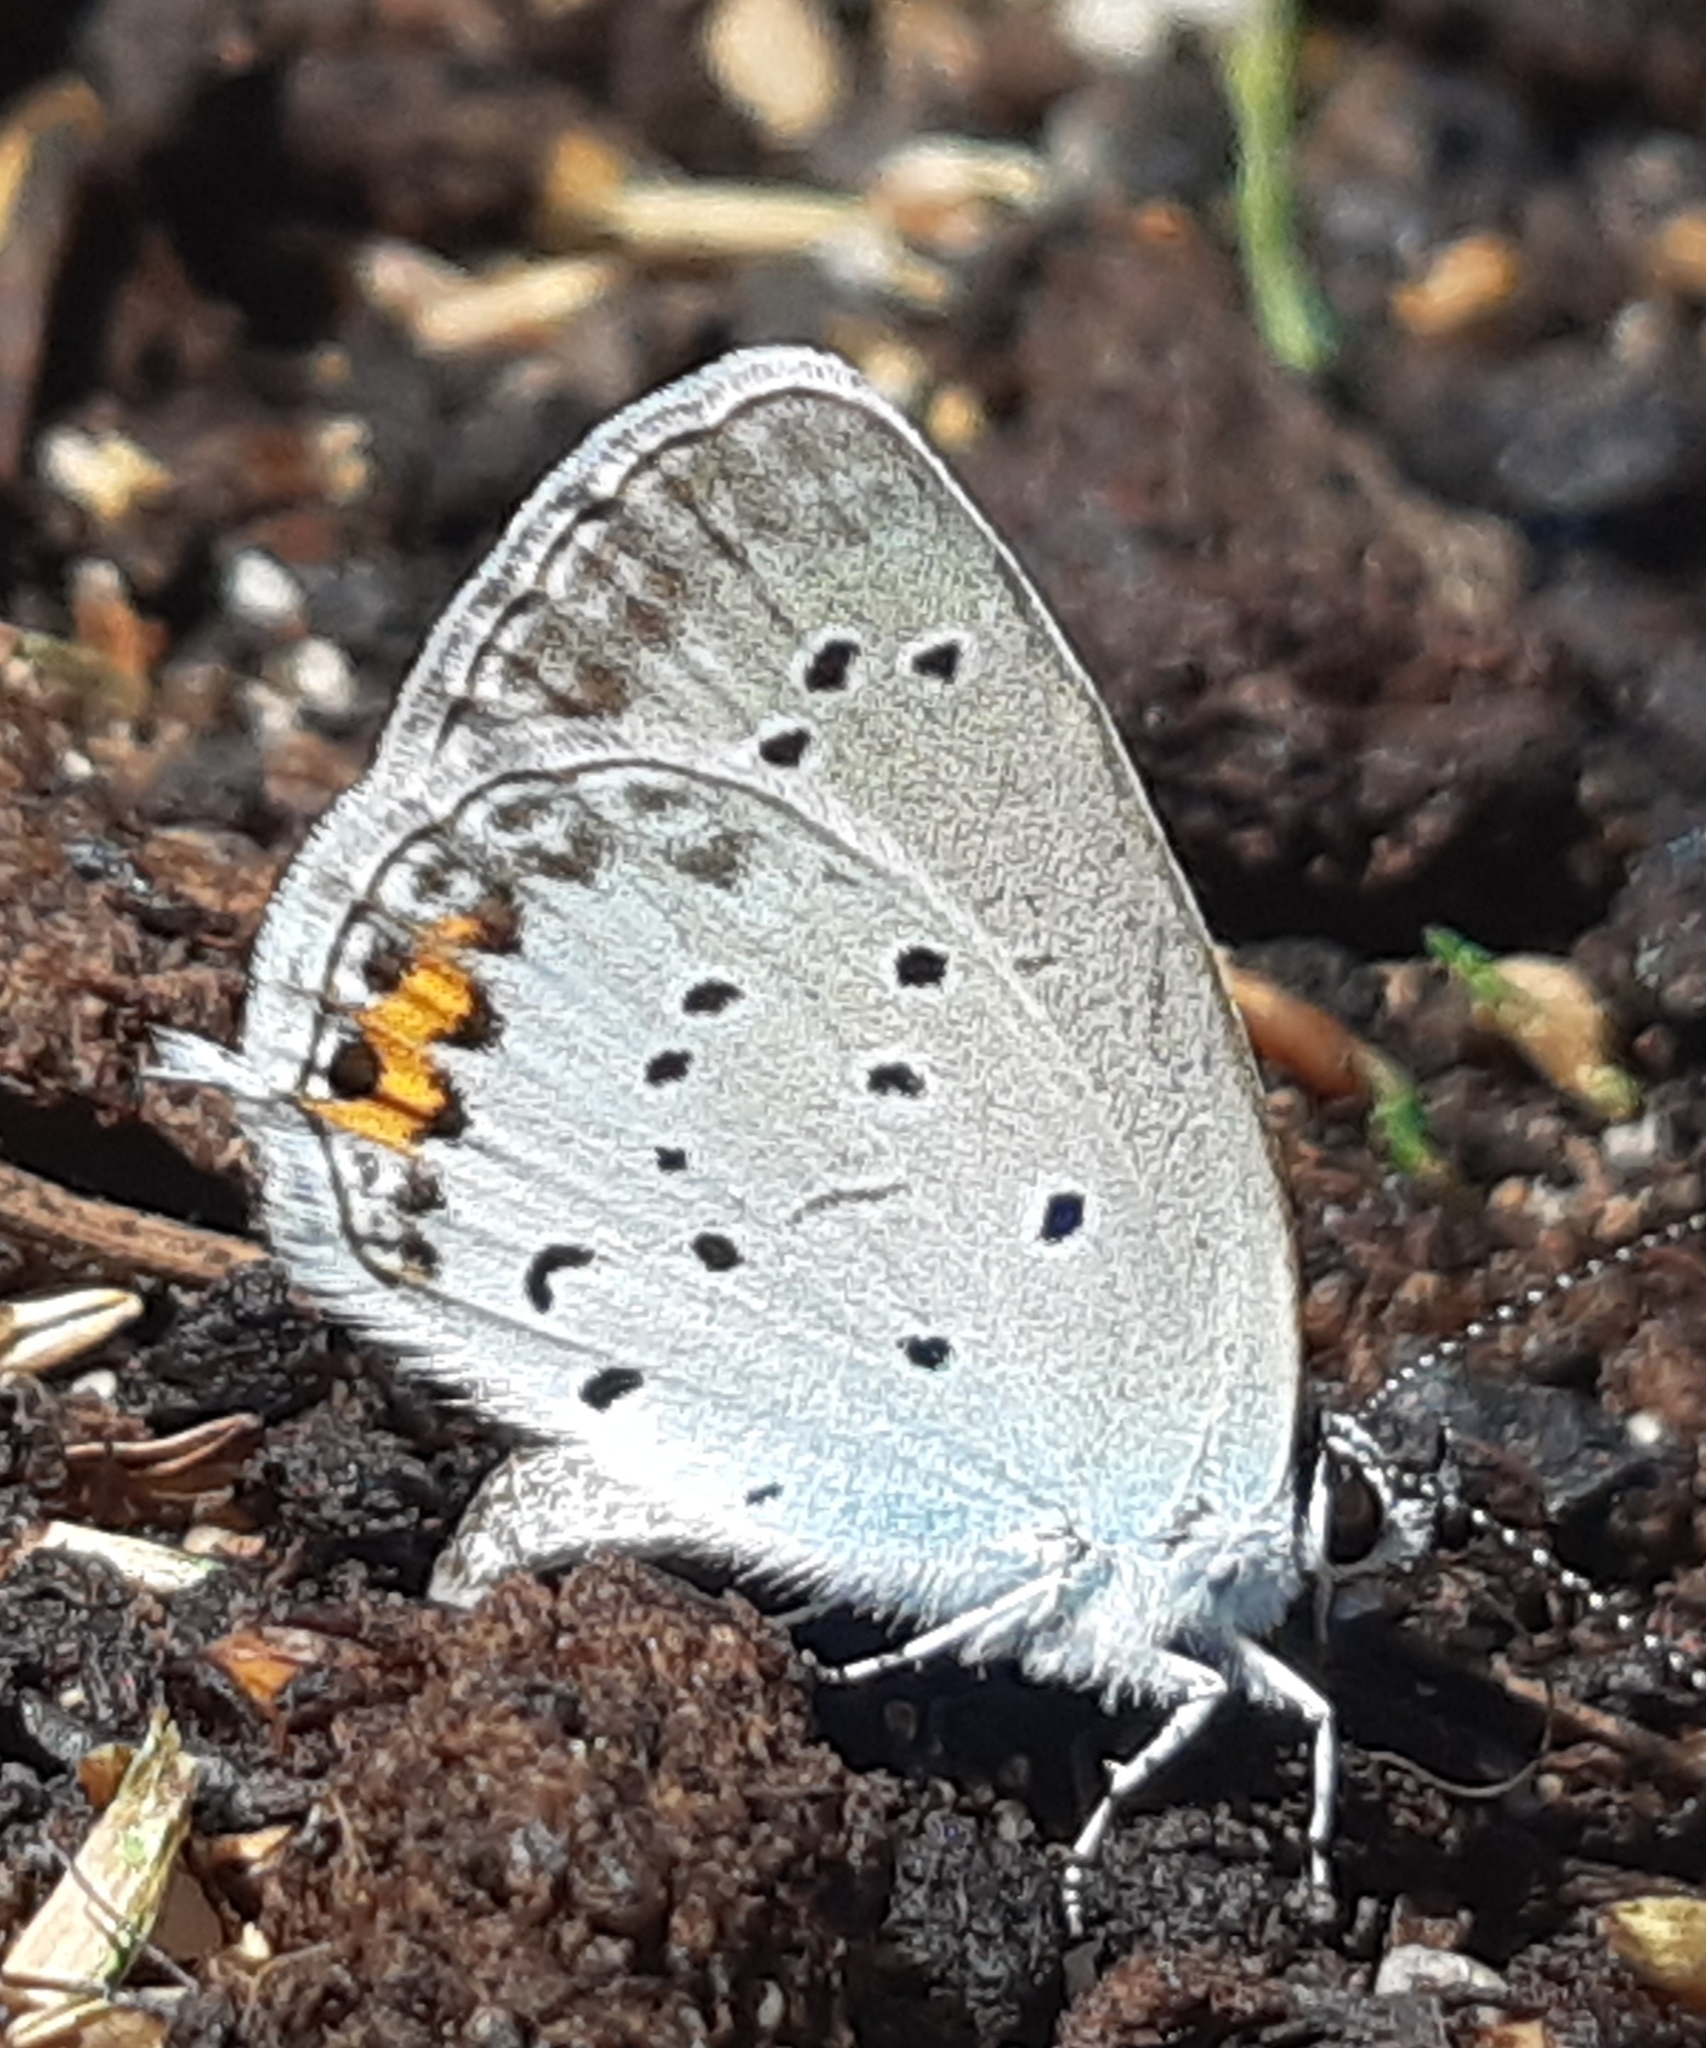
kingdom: Animalia
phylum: Arthropoda
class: Insecta
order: Lepidoptera
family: Lycaenidae
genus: Elkalyce
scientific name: Elkalyce argiades
